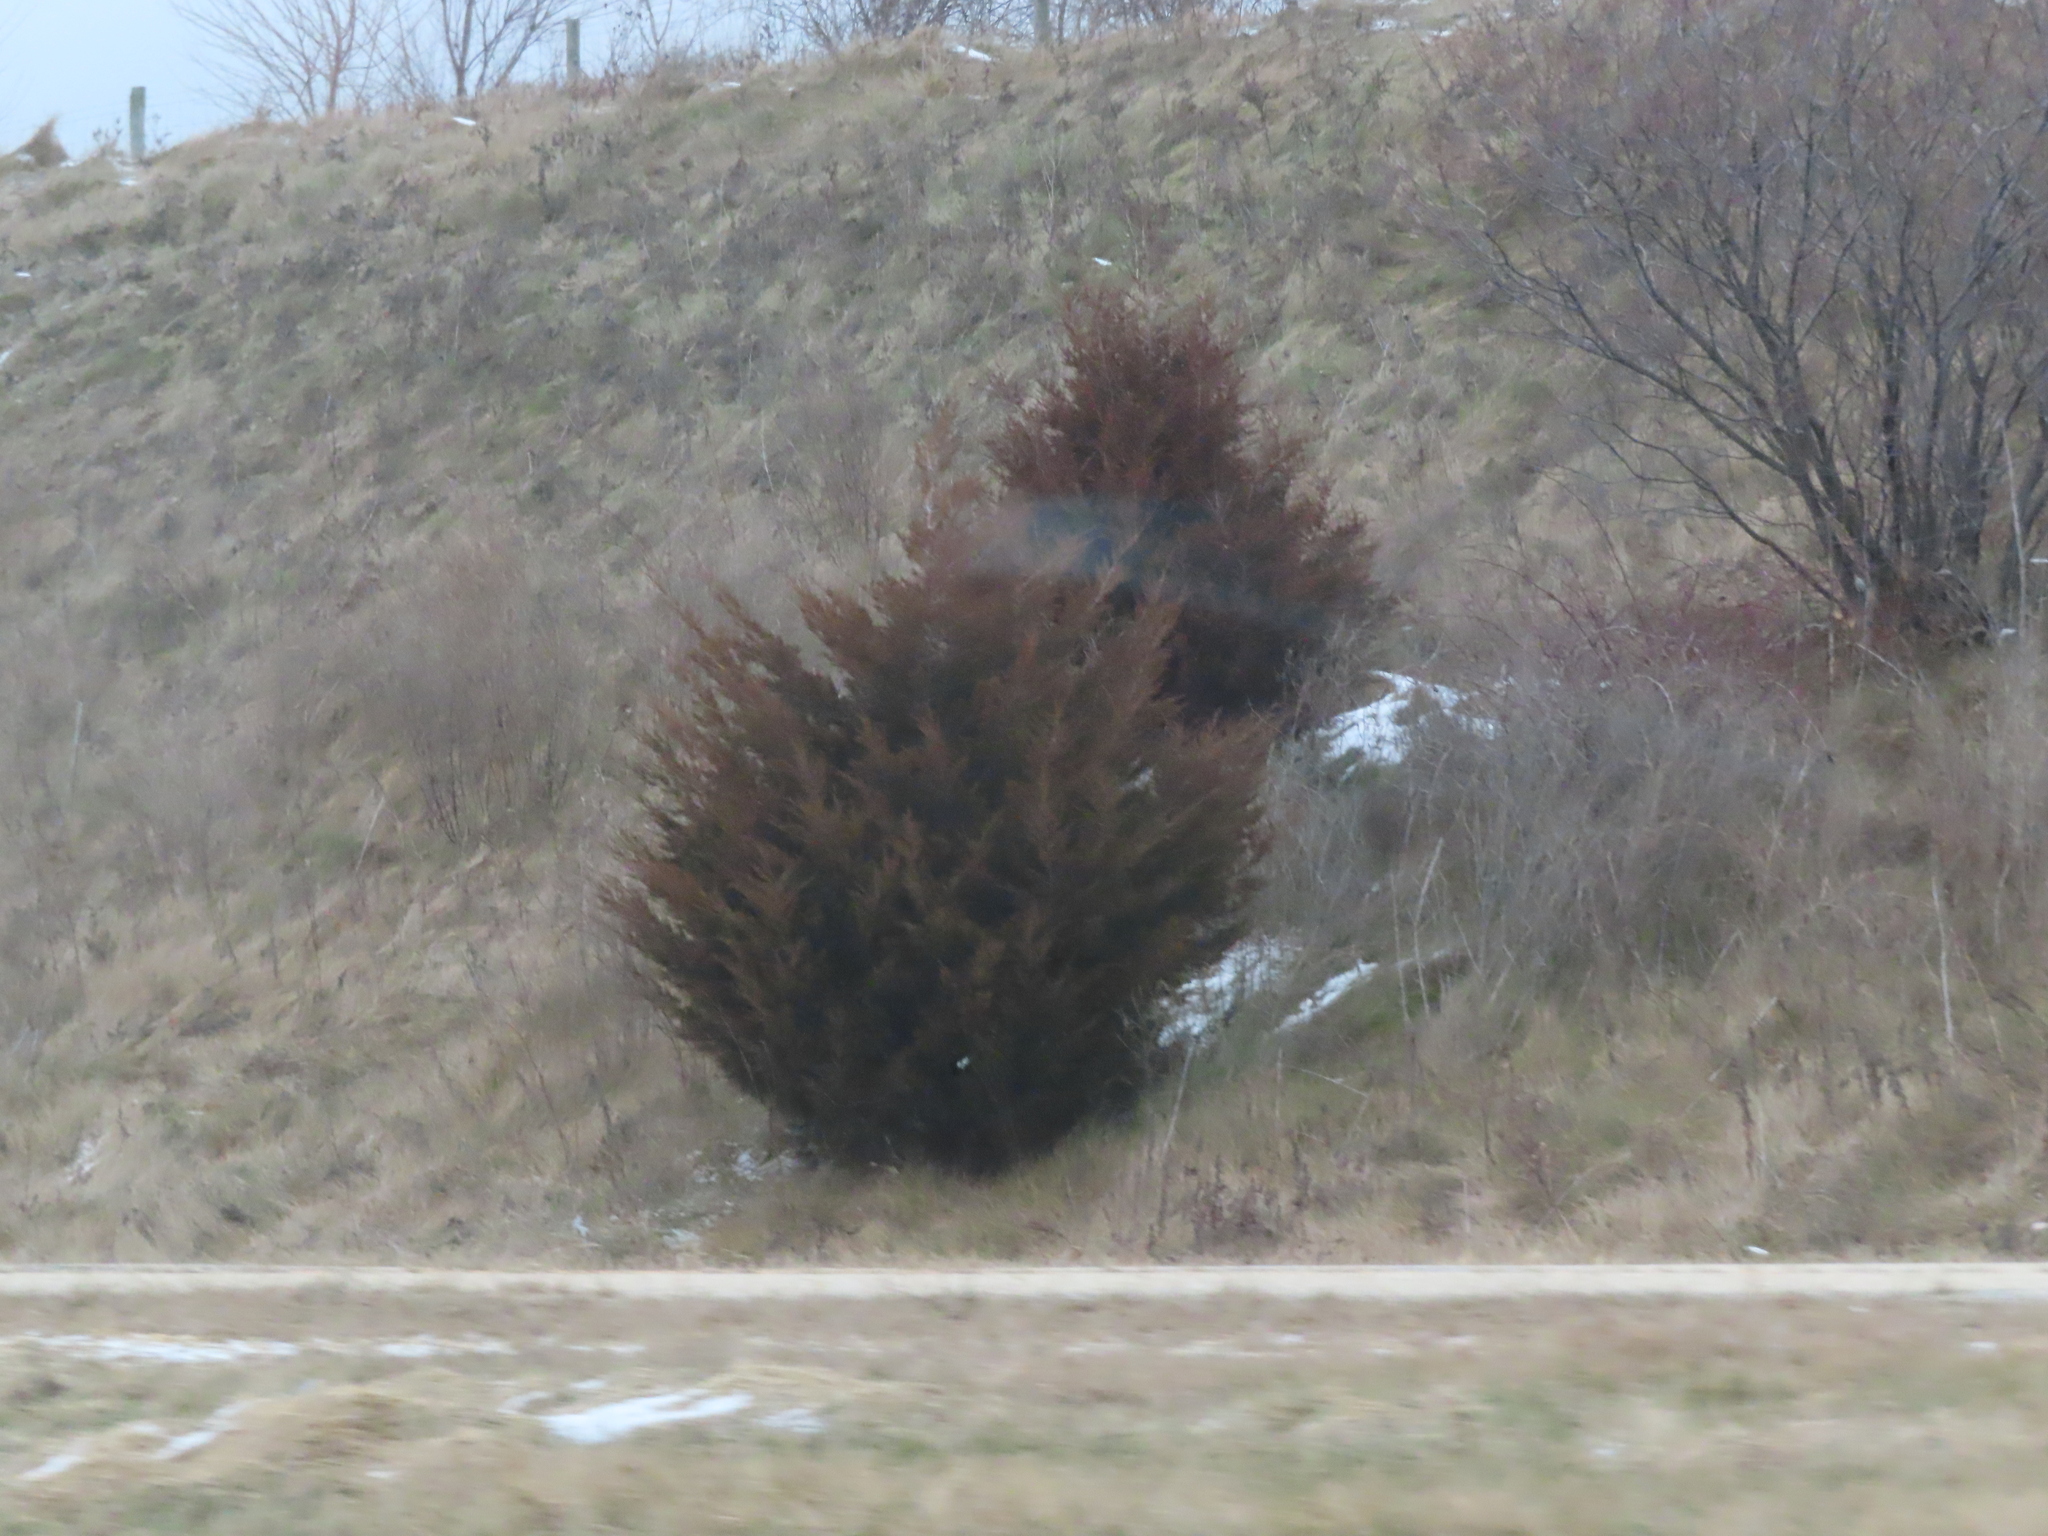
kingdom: Plantae
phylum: Tracheophyta
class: Pinopsida
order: Pinales
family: Cupressaceae
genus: Juniperus
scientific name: Juniperus virginiana
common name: Red juniper
